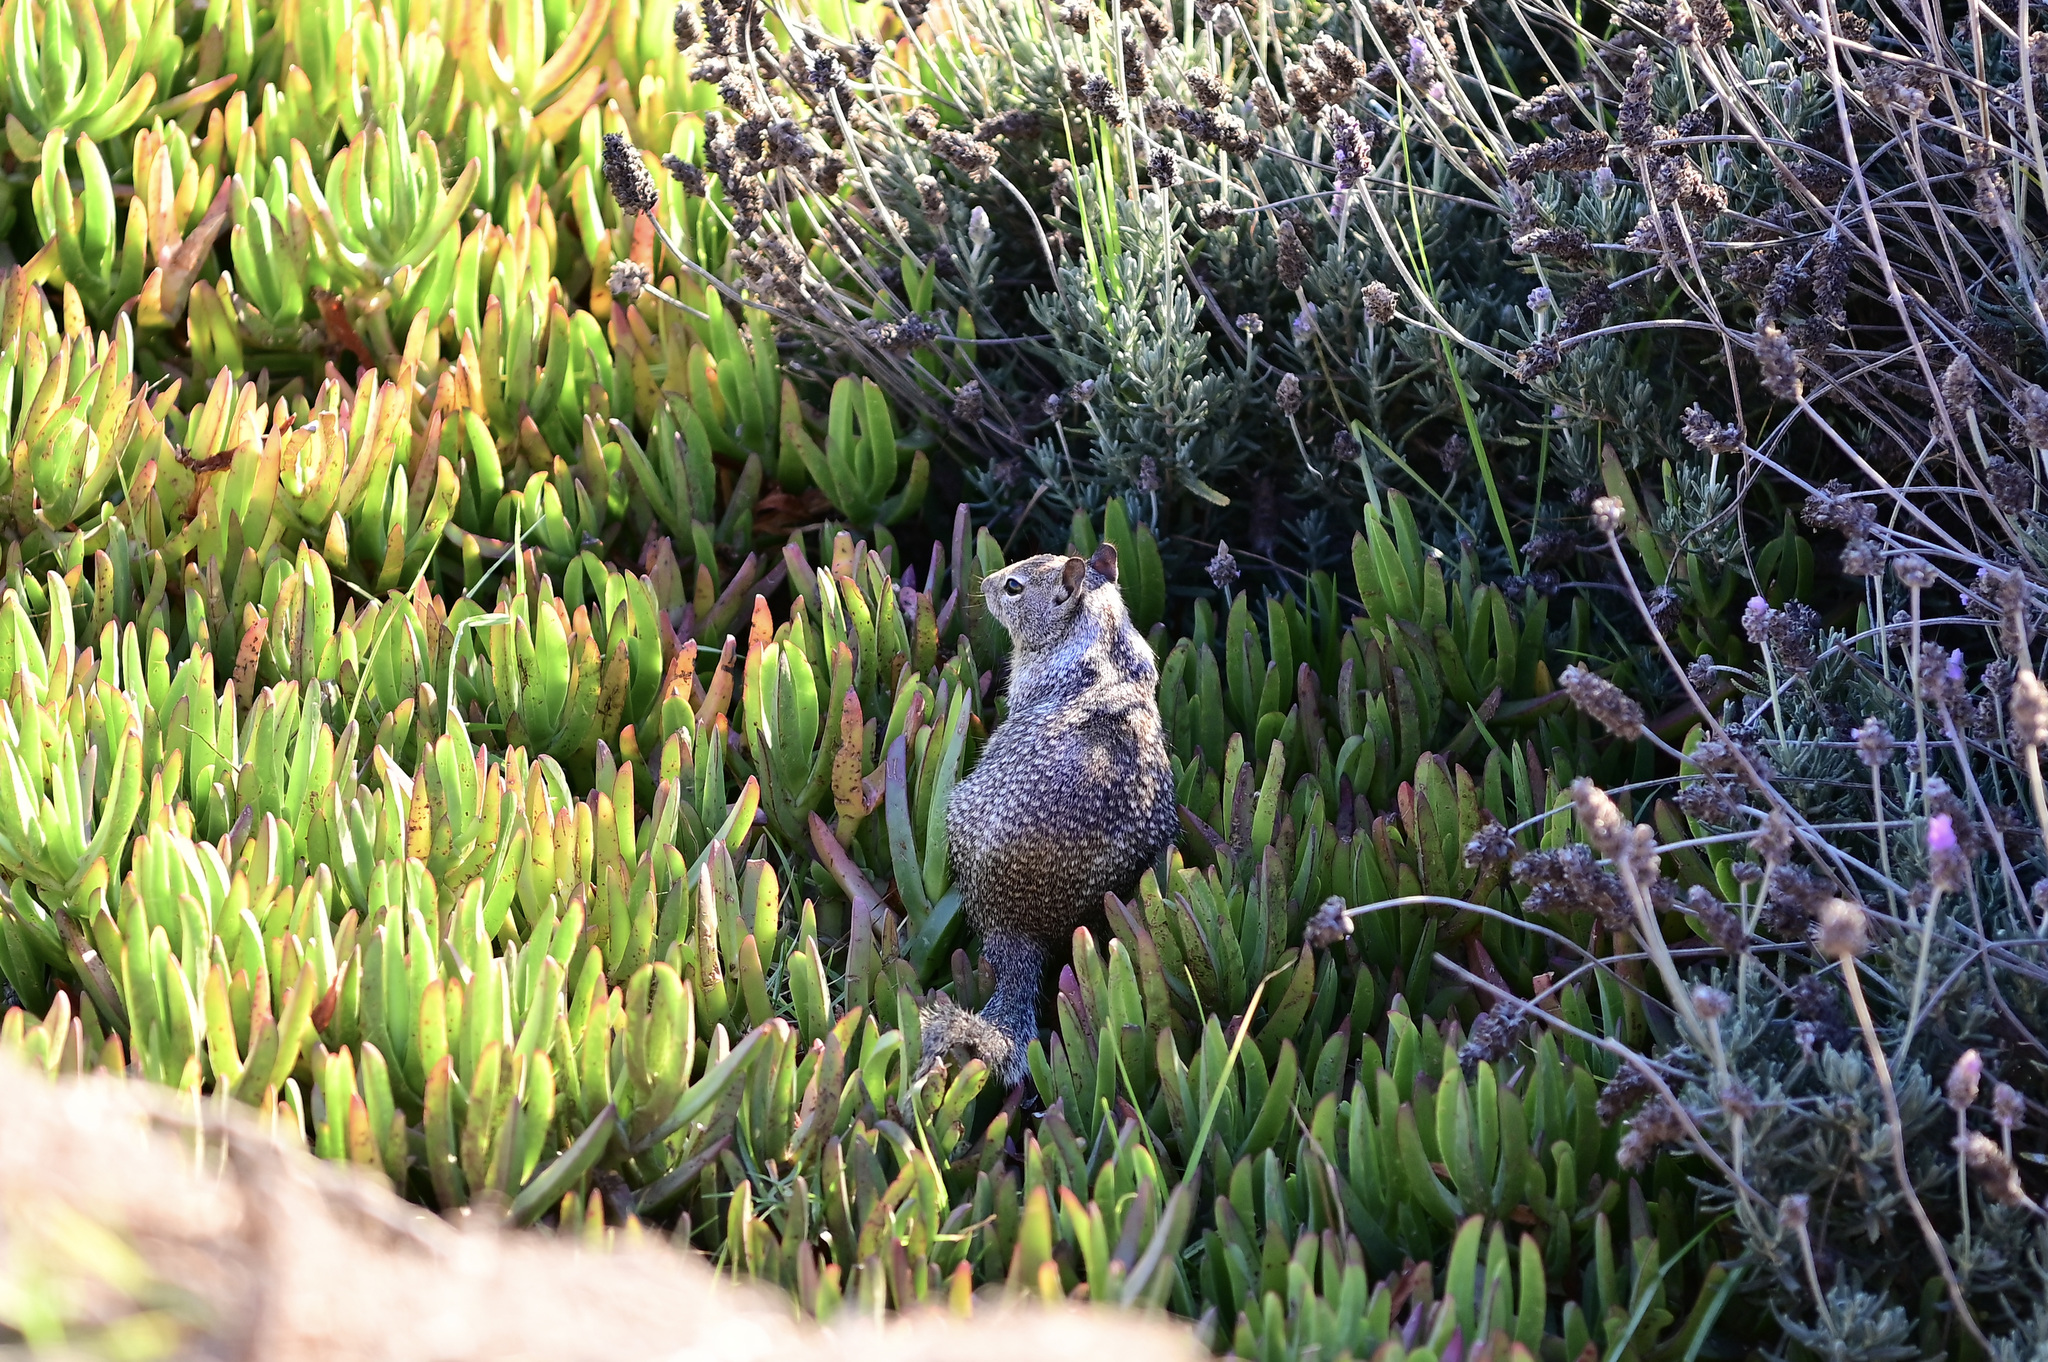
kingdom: Animalia
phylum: Chordata
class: Mammalia
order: Rodentia
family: Sciuridae
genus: Otospermophilus
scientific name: Otospermophilus beecheyi
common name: California ground squirrel
